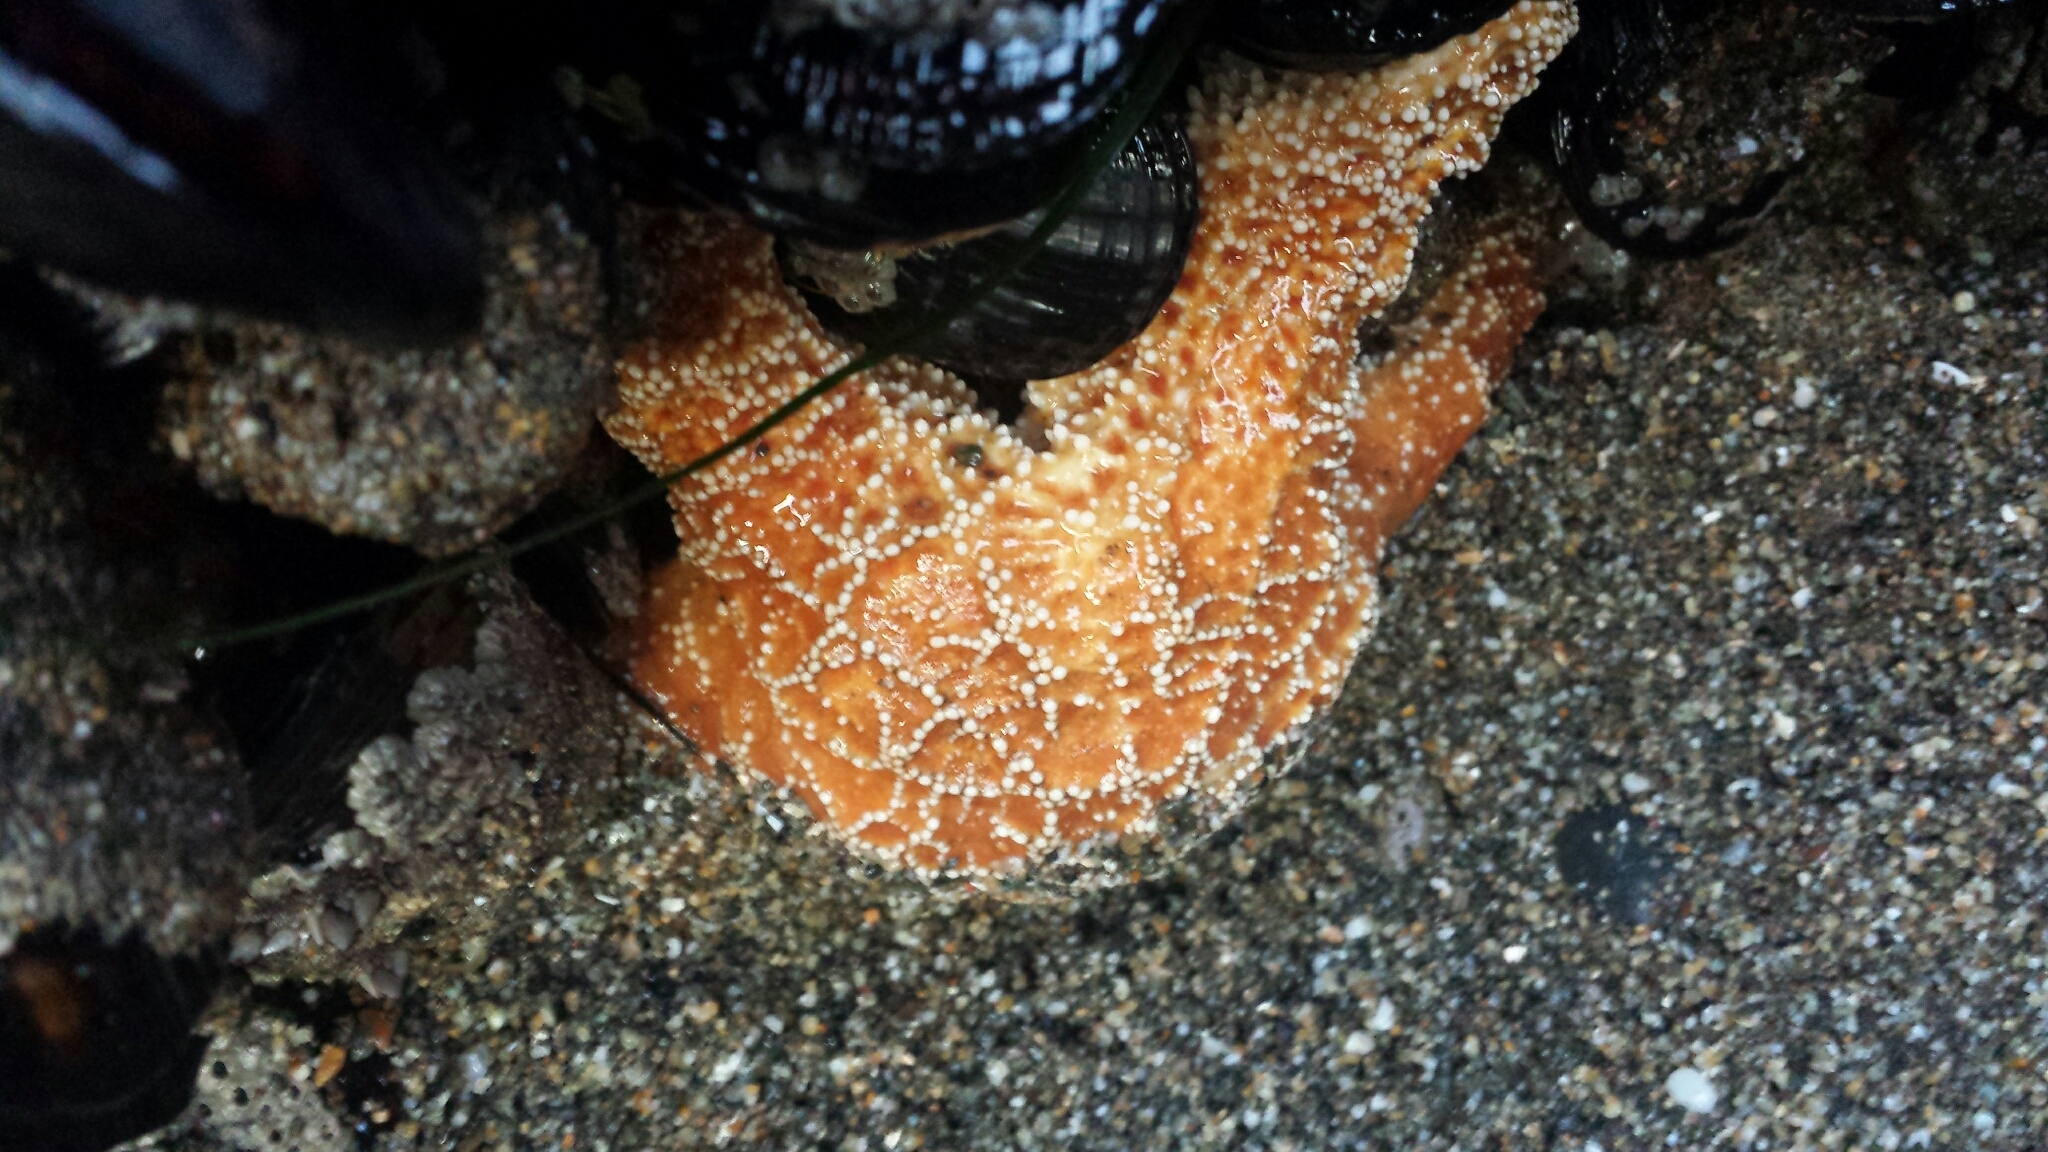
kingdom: Animalia
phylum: Echinodermata
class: Asteroidea
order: Forcipulatida
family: Asteriidae
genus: Pisaster
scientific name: Pisaster ochraceus
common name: Ochre stars
